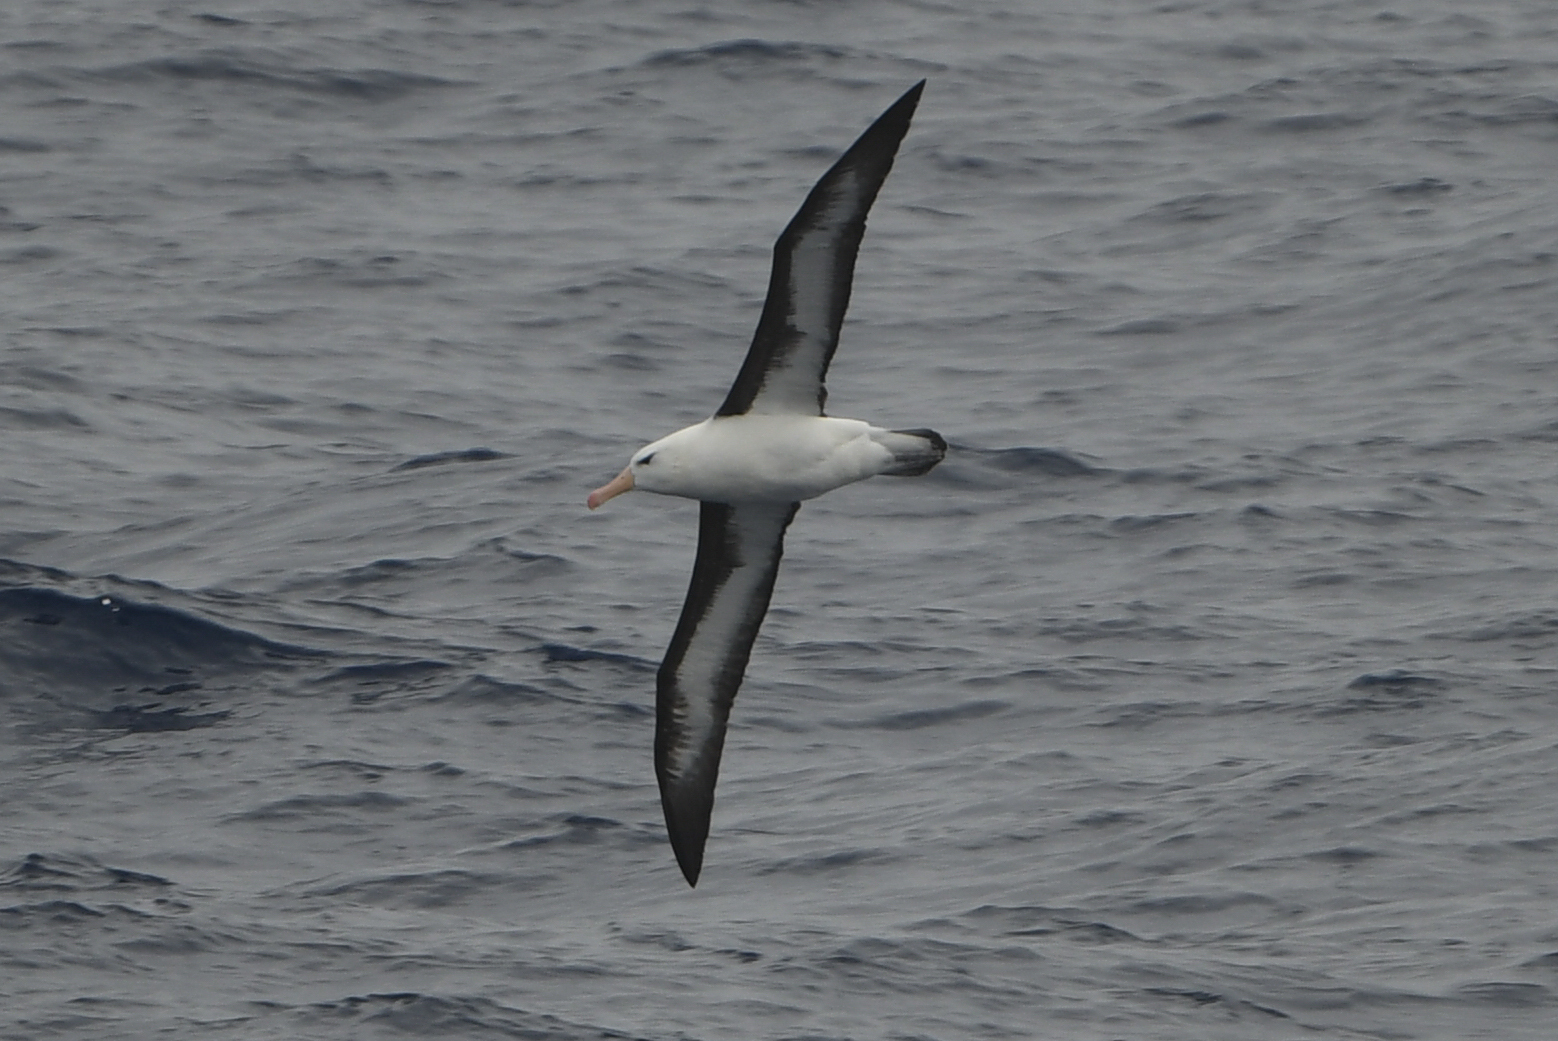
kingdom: Animalia
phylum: Chordata
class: Aves
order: Procellariiformes
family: Diomedeidae
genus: Thalassarche
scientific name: Thalassarche melanophris
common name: Black-browed albatross
